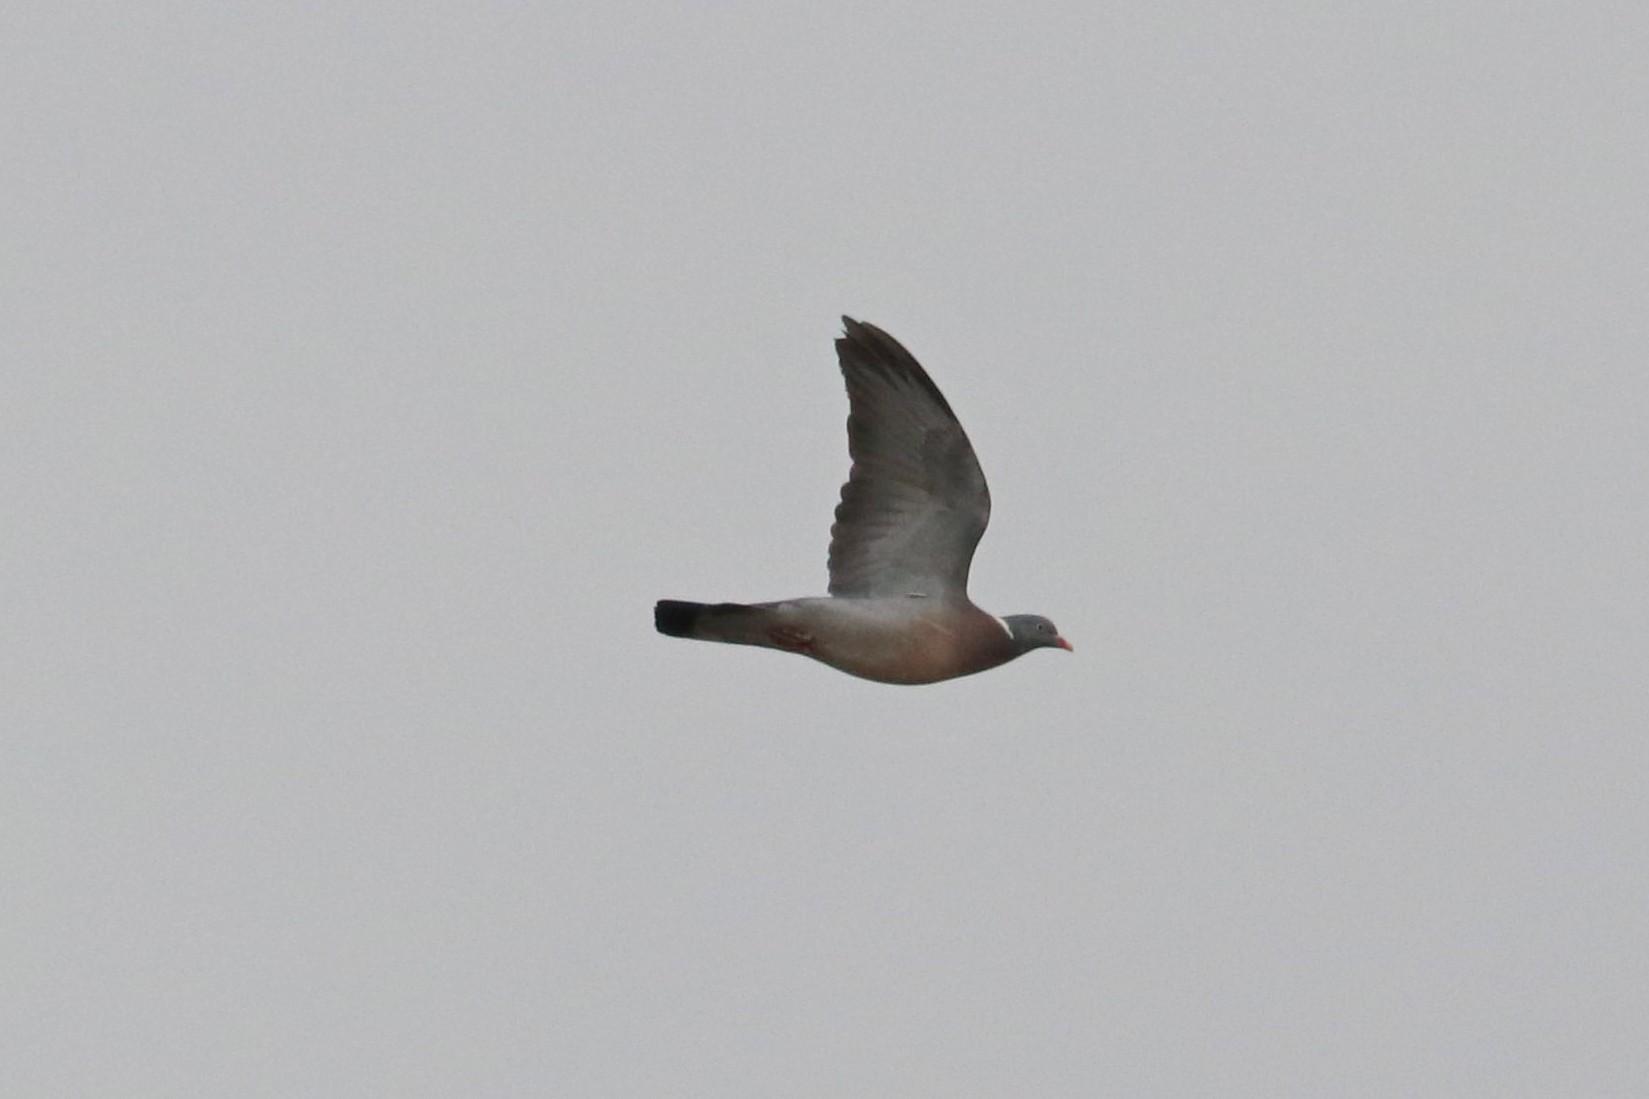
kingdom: Animalia
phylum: Chordata
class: Aves
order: Columbiformes
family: Columbidae
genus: Columba
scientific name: Columba palumbus
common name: Common wood pigeon
